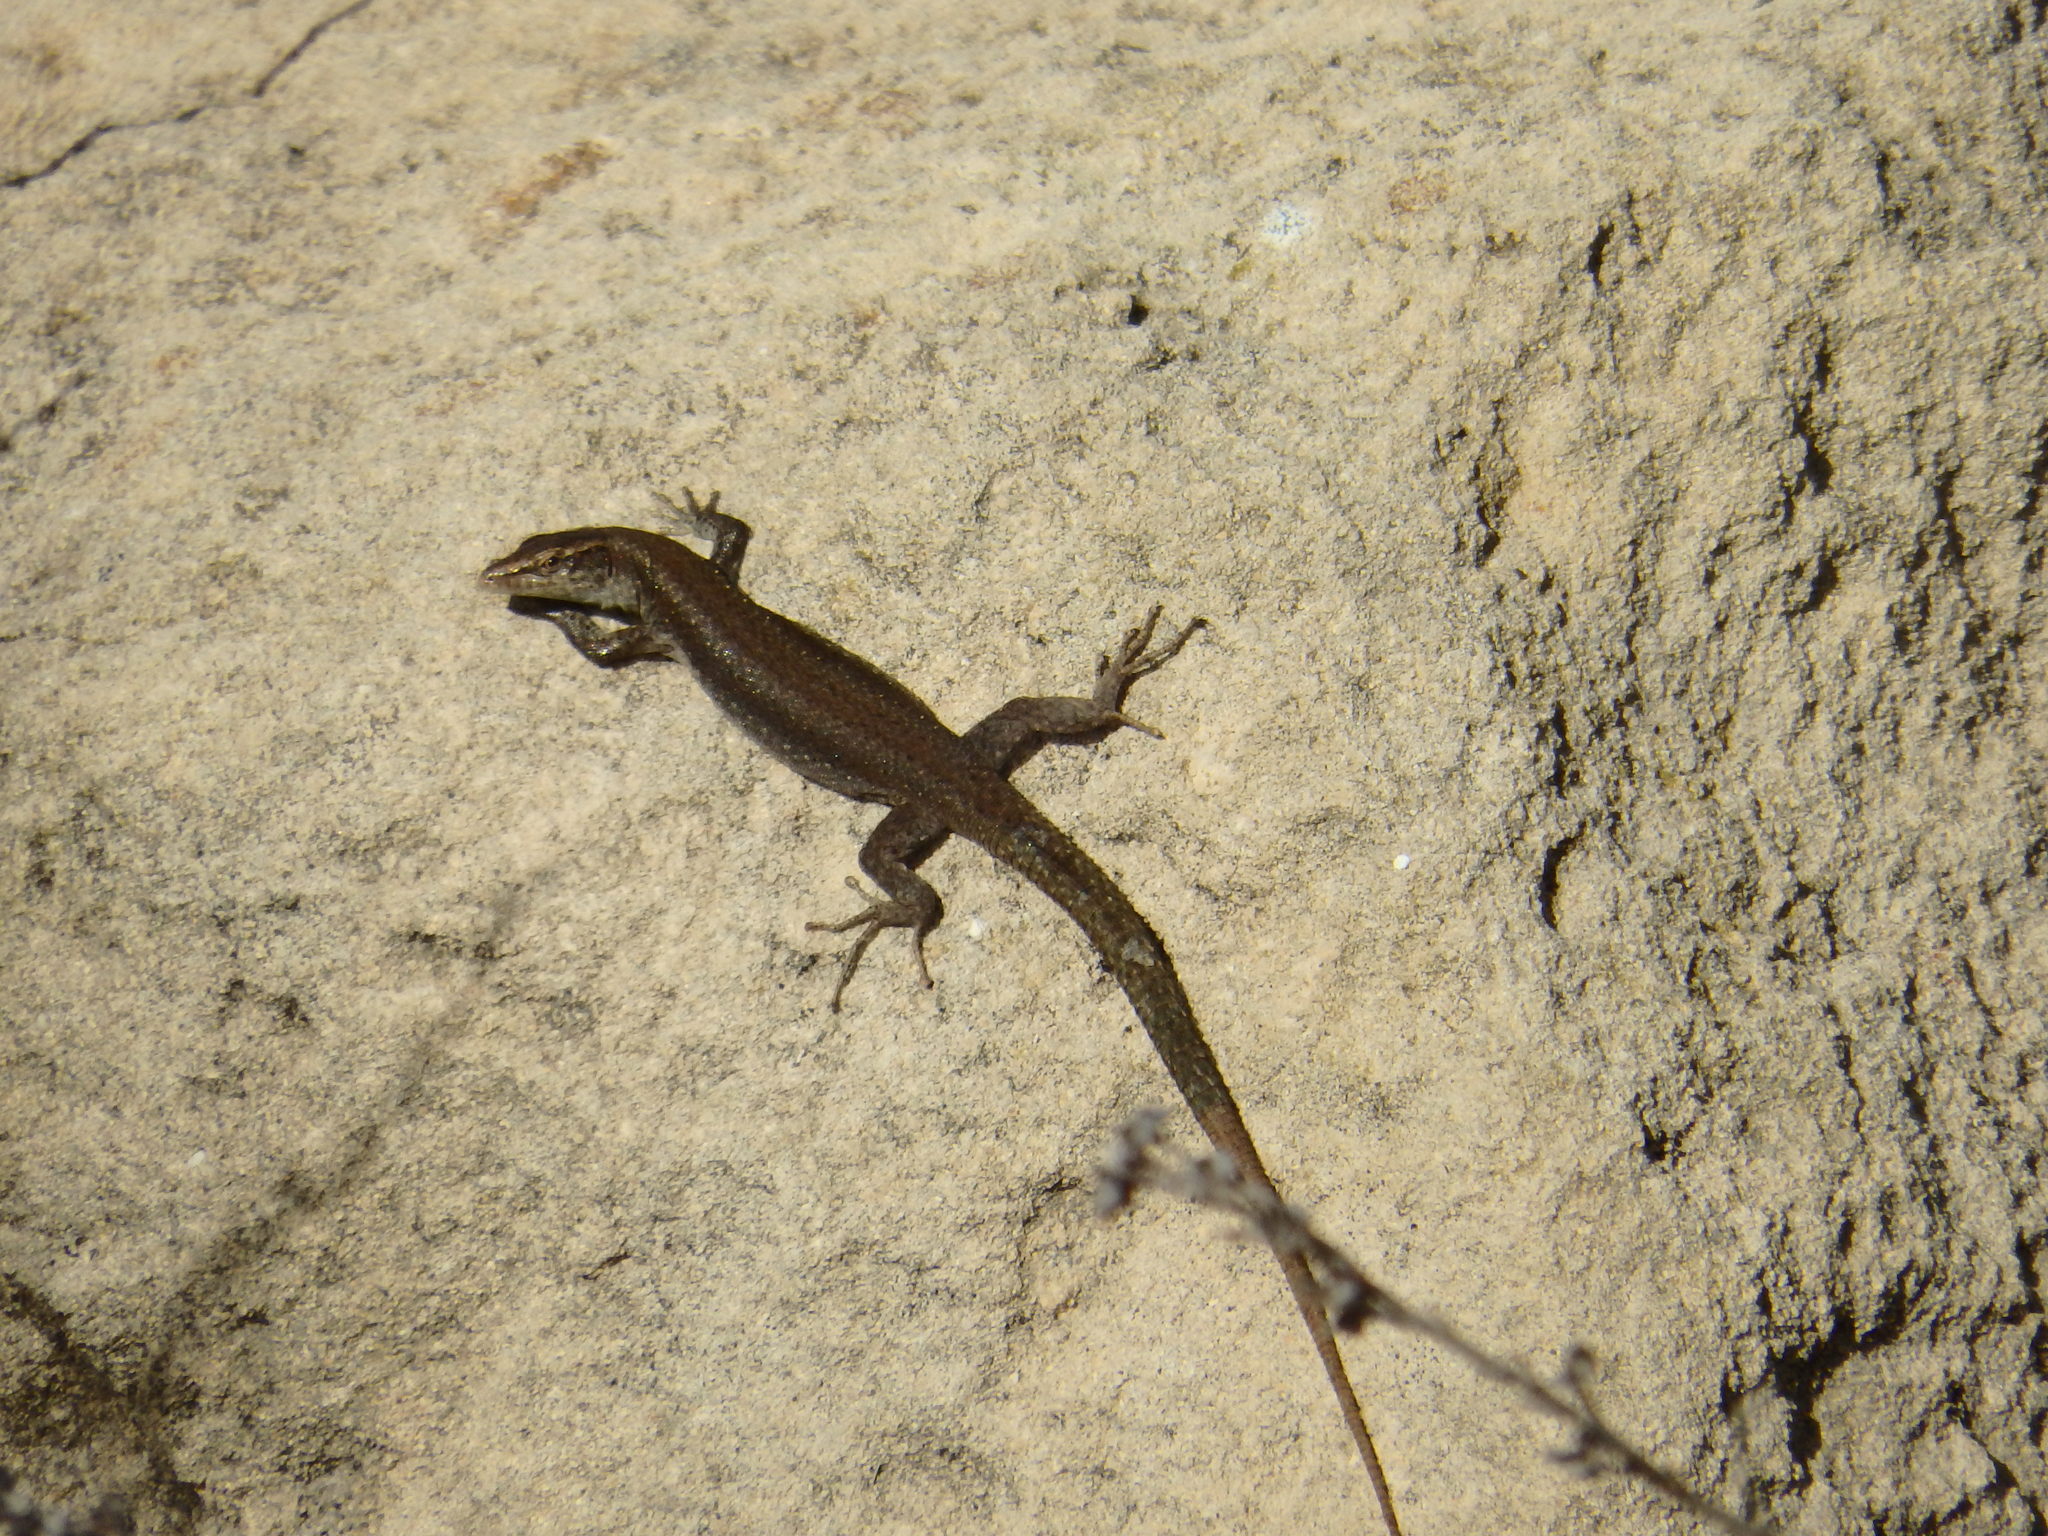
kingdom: Animalia
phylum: Chordata
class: Squamata
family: Lacertidae
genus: Teira
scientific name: Teira dugesii
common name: Madeira lizard
